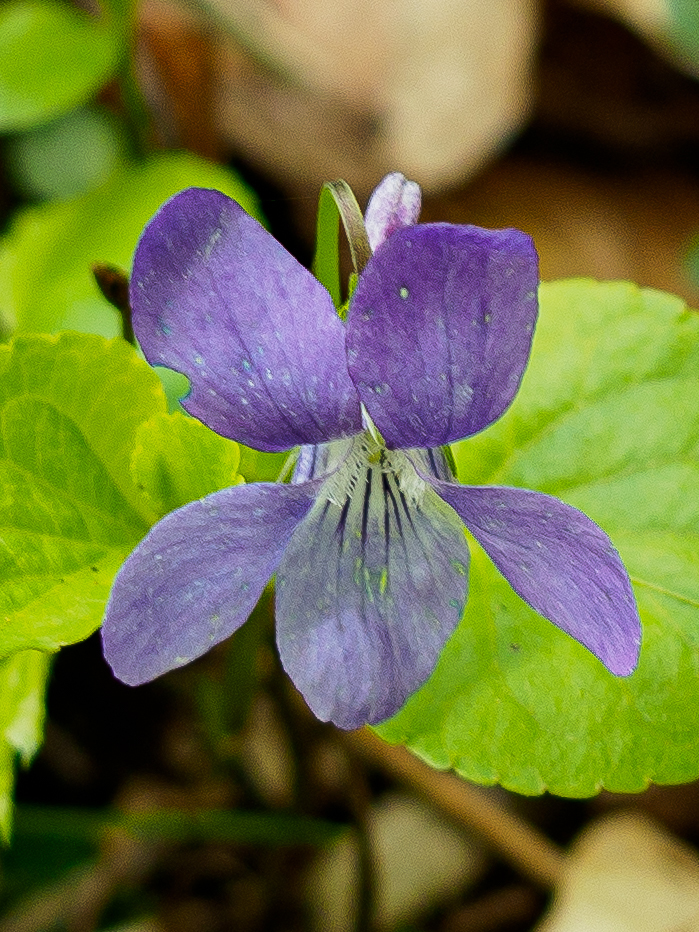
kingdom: Plantae
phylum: Tracheophyta
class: Magnoliopsida
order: Malpighiales
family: Violaceae
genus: Viola
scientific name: Viola bavarica
